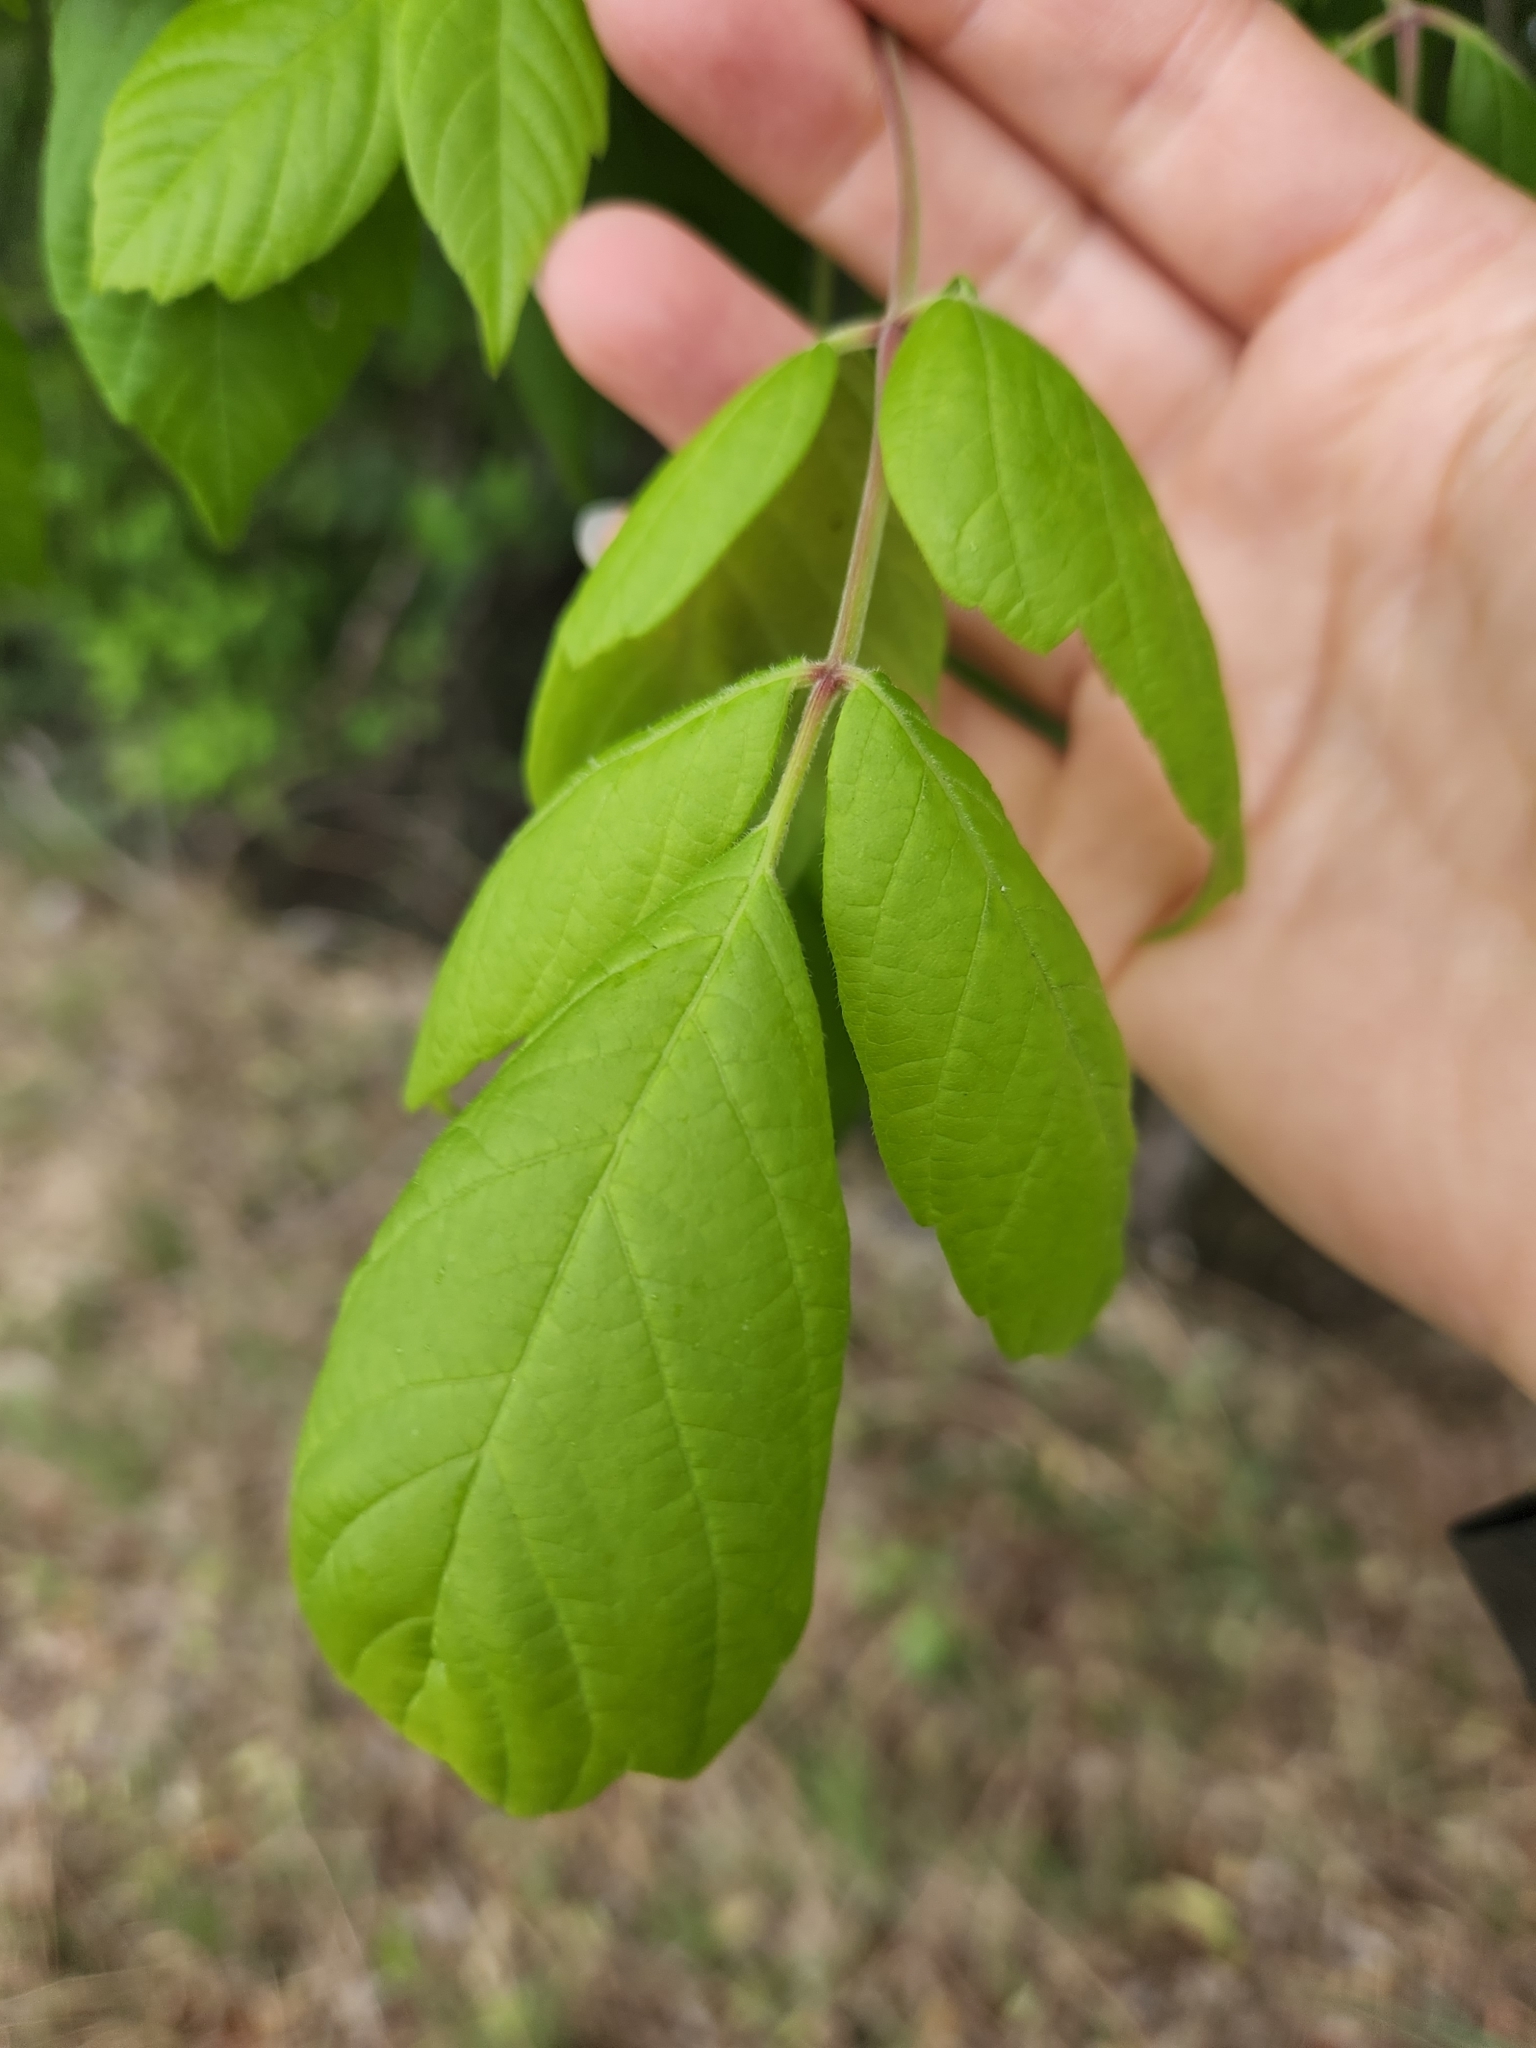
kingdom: Plantae
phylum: Tracheophyta
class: Magnoliopsida
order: Sapindales
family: Sapindaceae
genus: Acer
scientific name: Acer negundo
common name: Ashleaf maple
